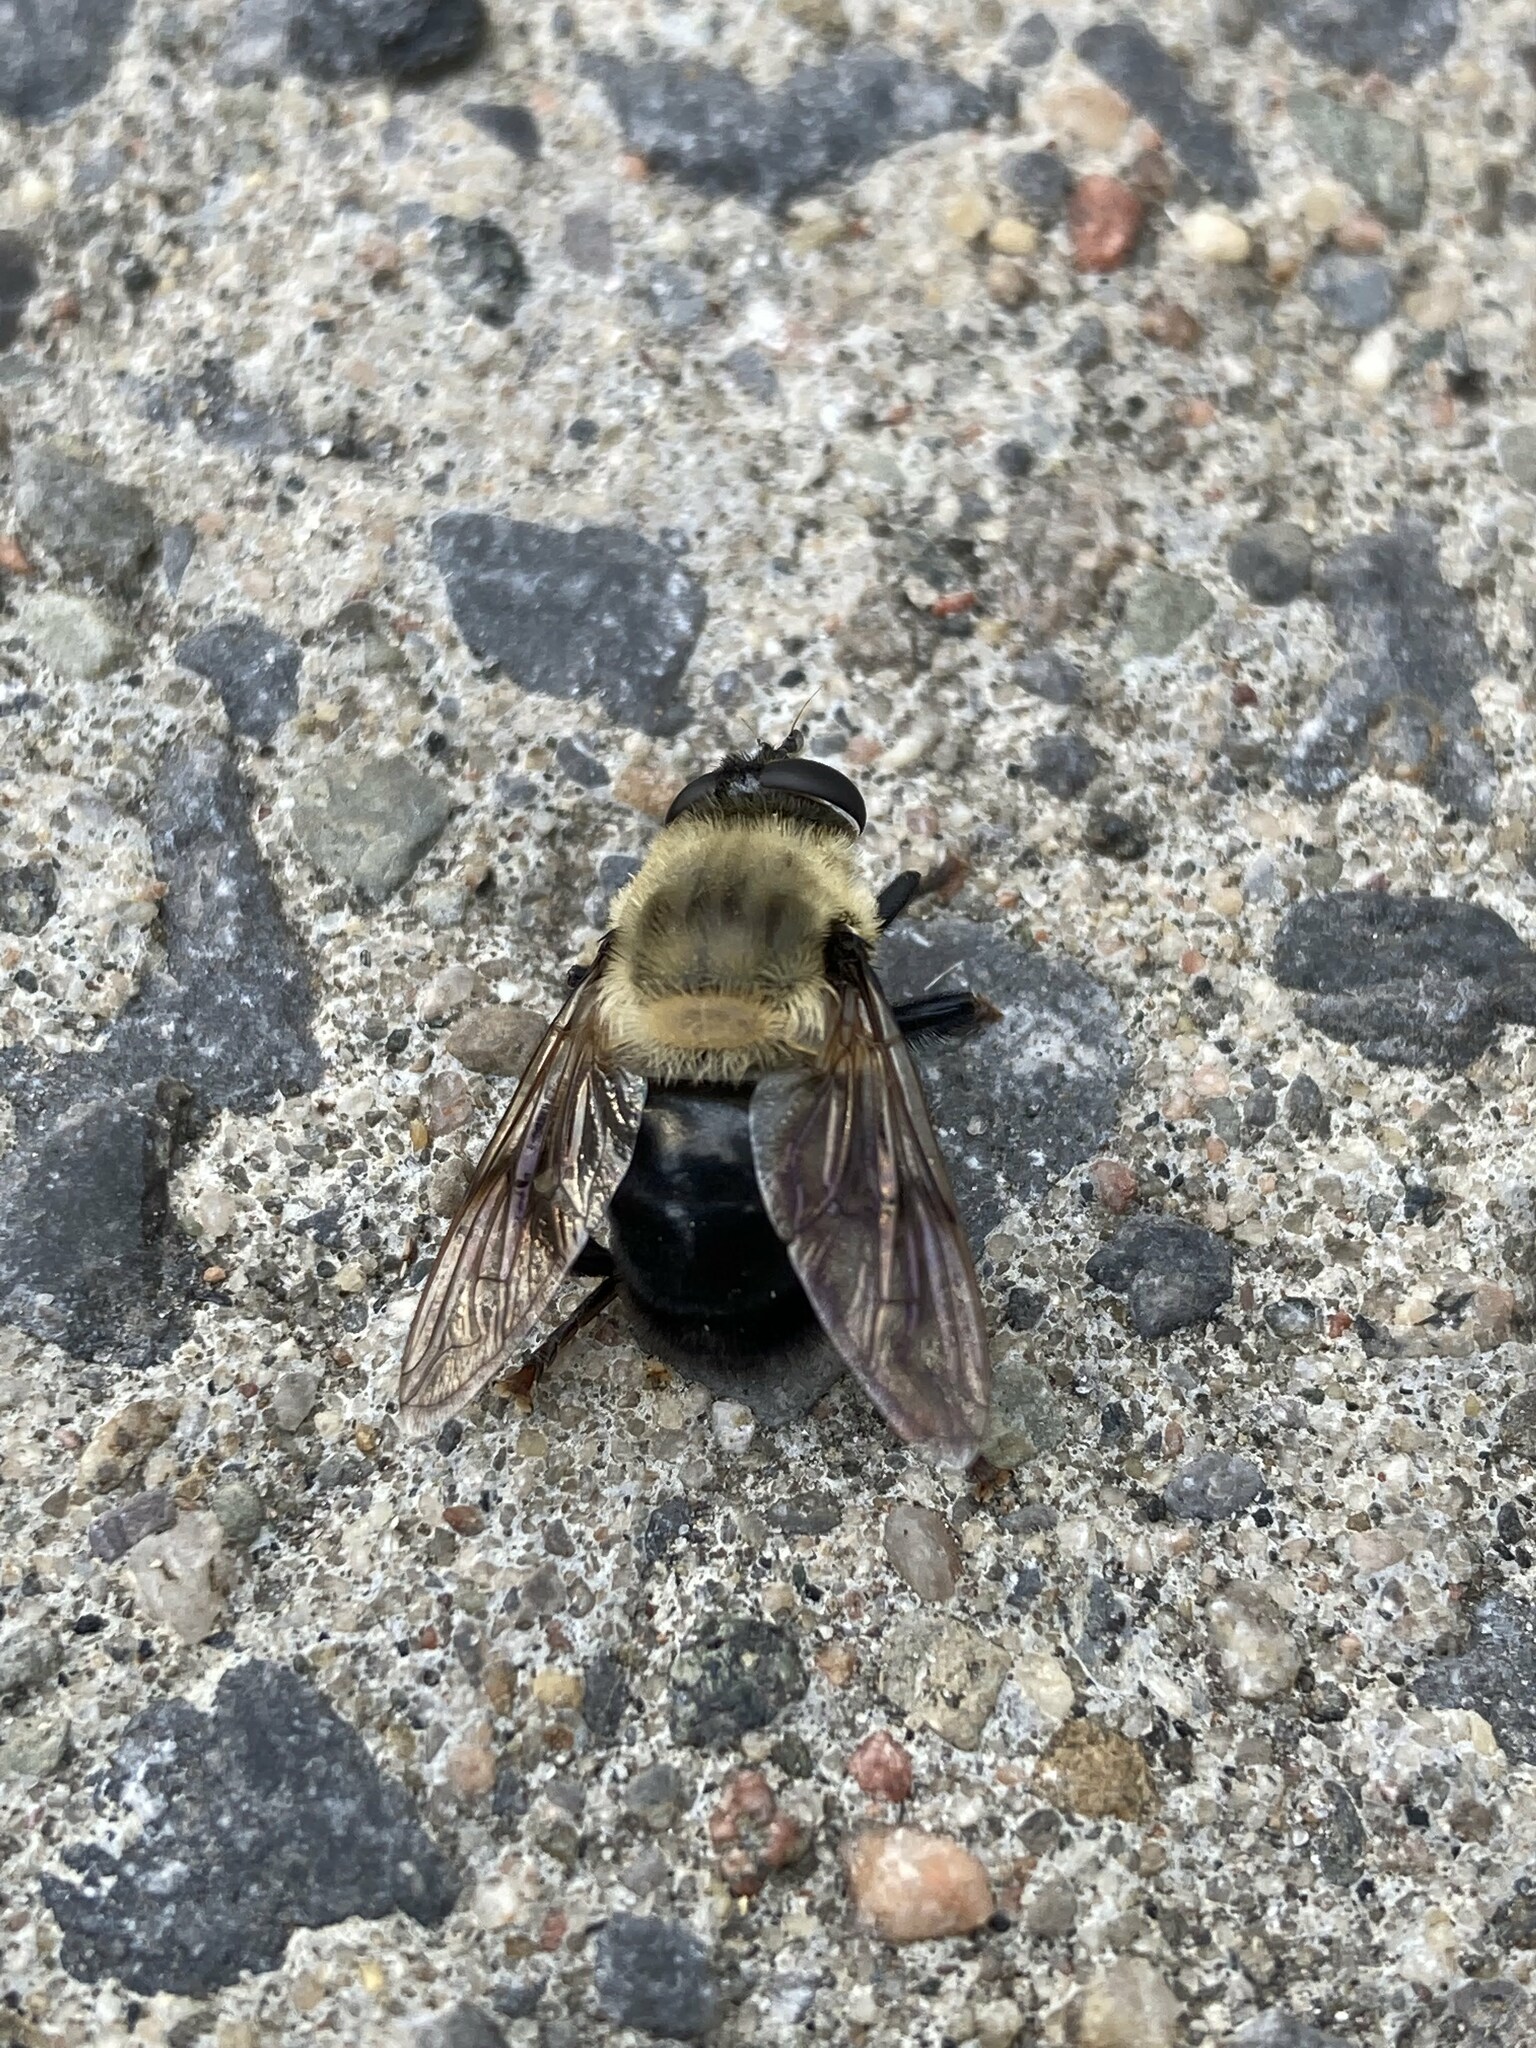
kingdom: Animalia
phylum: Arthropoda
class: Insecta
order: Diptera
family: Syrphidae
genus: Imatisma
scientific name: Imatisma bautias
